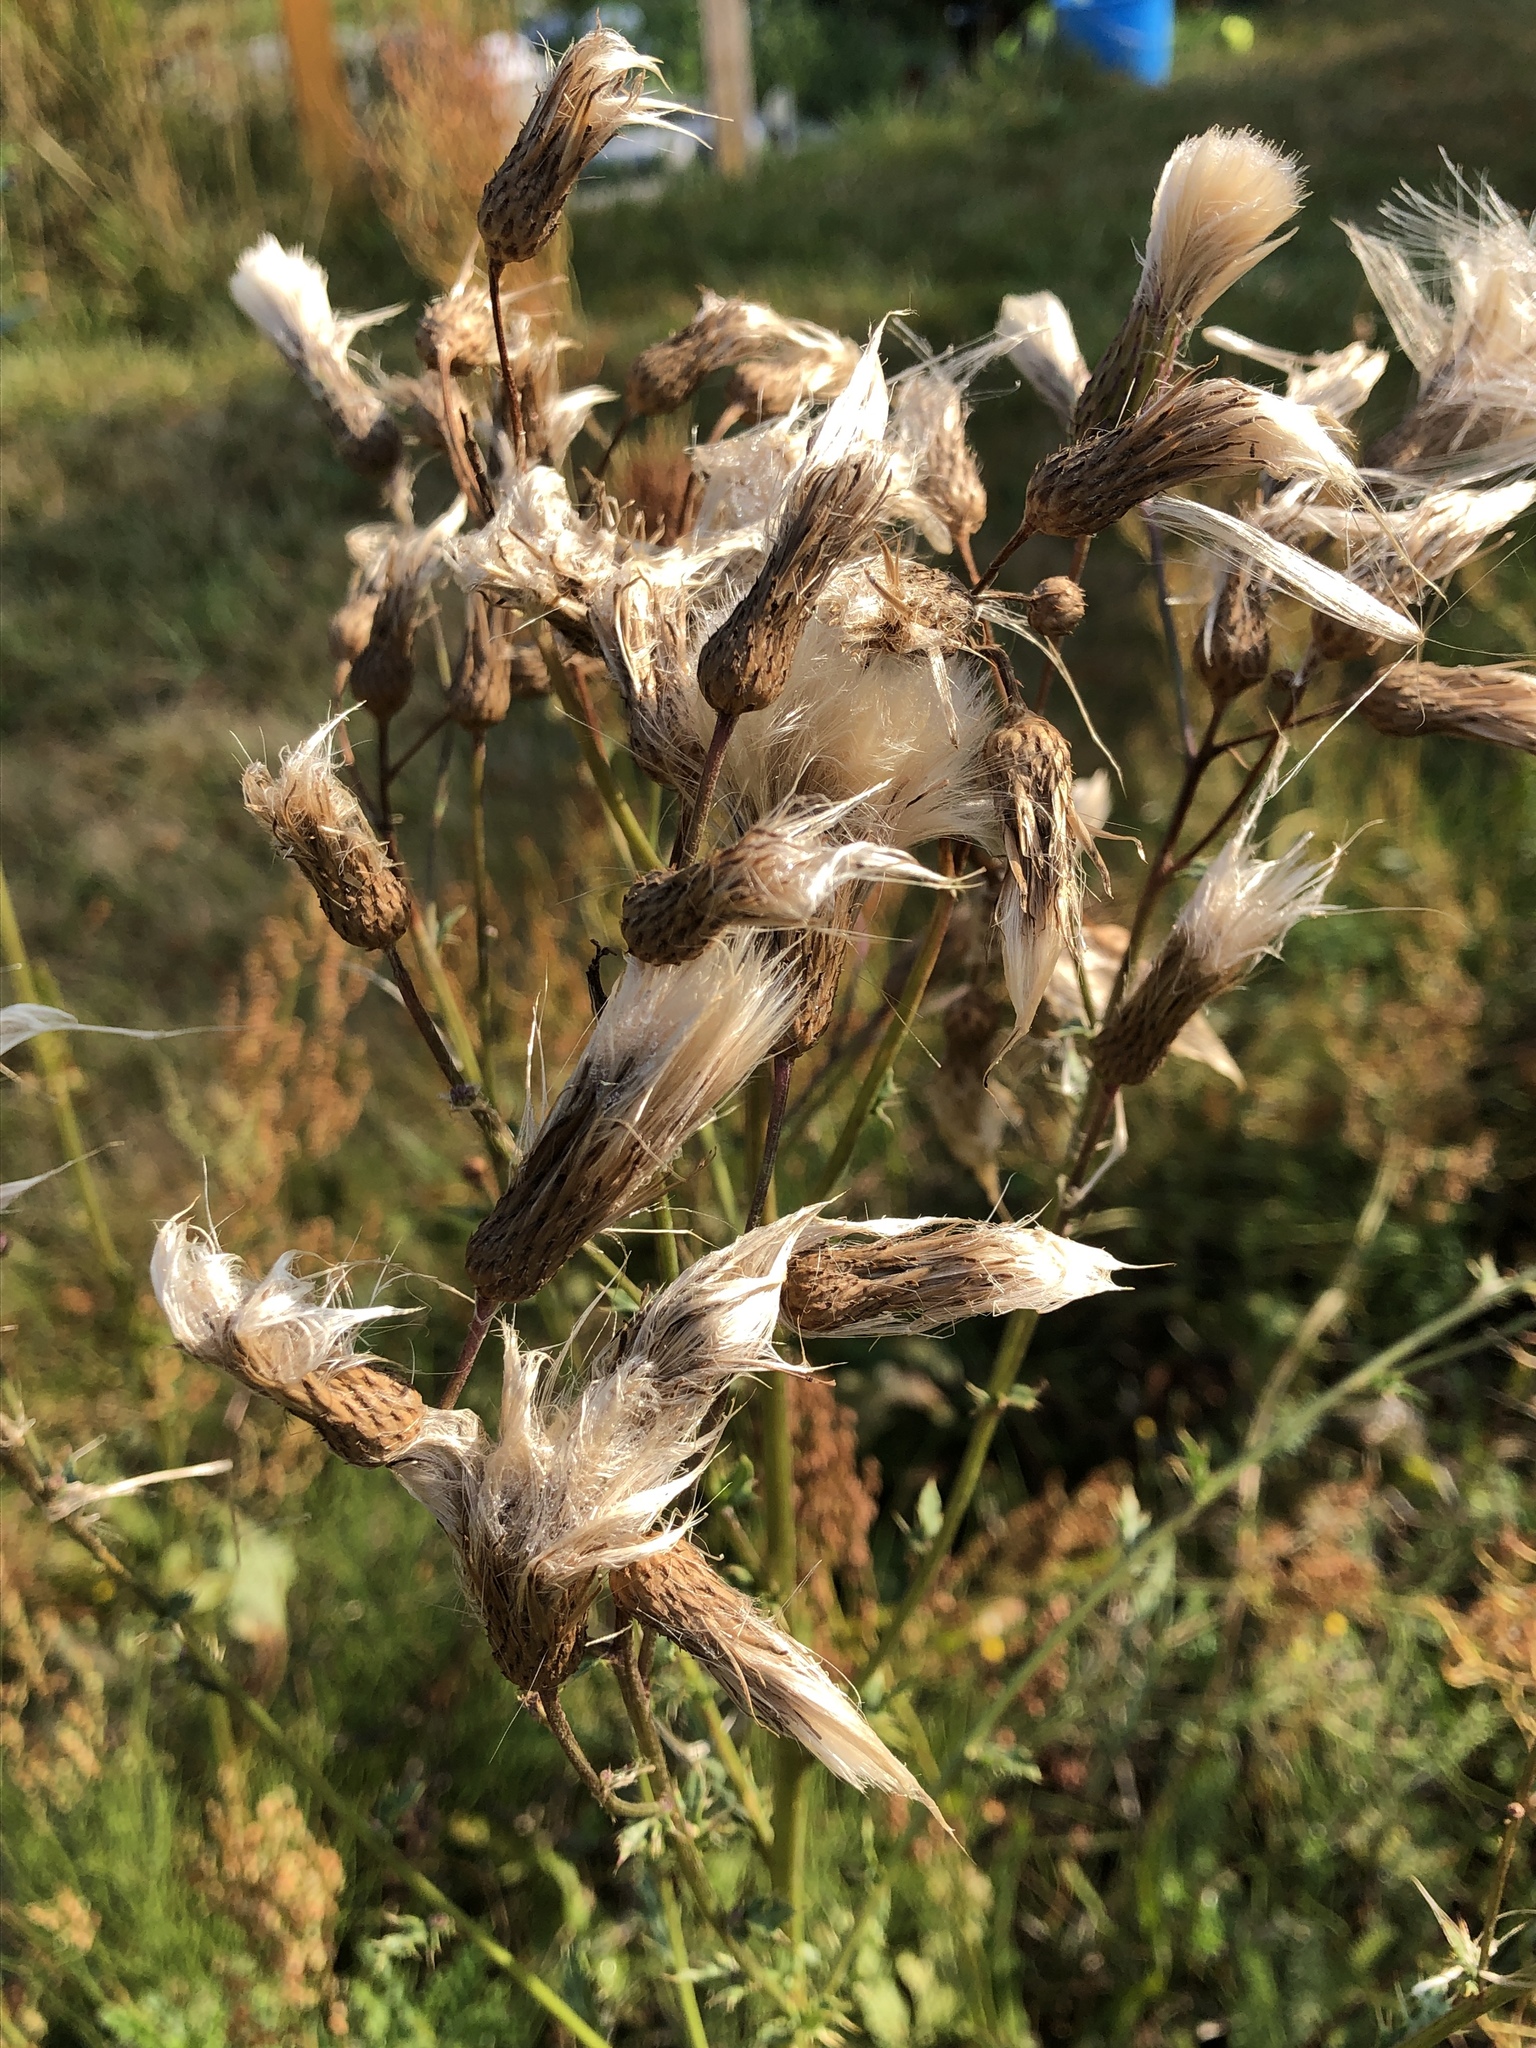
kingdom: Plantae
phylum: Tracheophyta
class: Magnoliopsida
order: Asterales
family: Asteraceae
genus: Cirsium
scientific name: Cirsium arvense
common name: Creeping thistle
